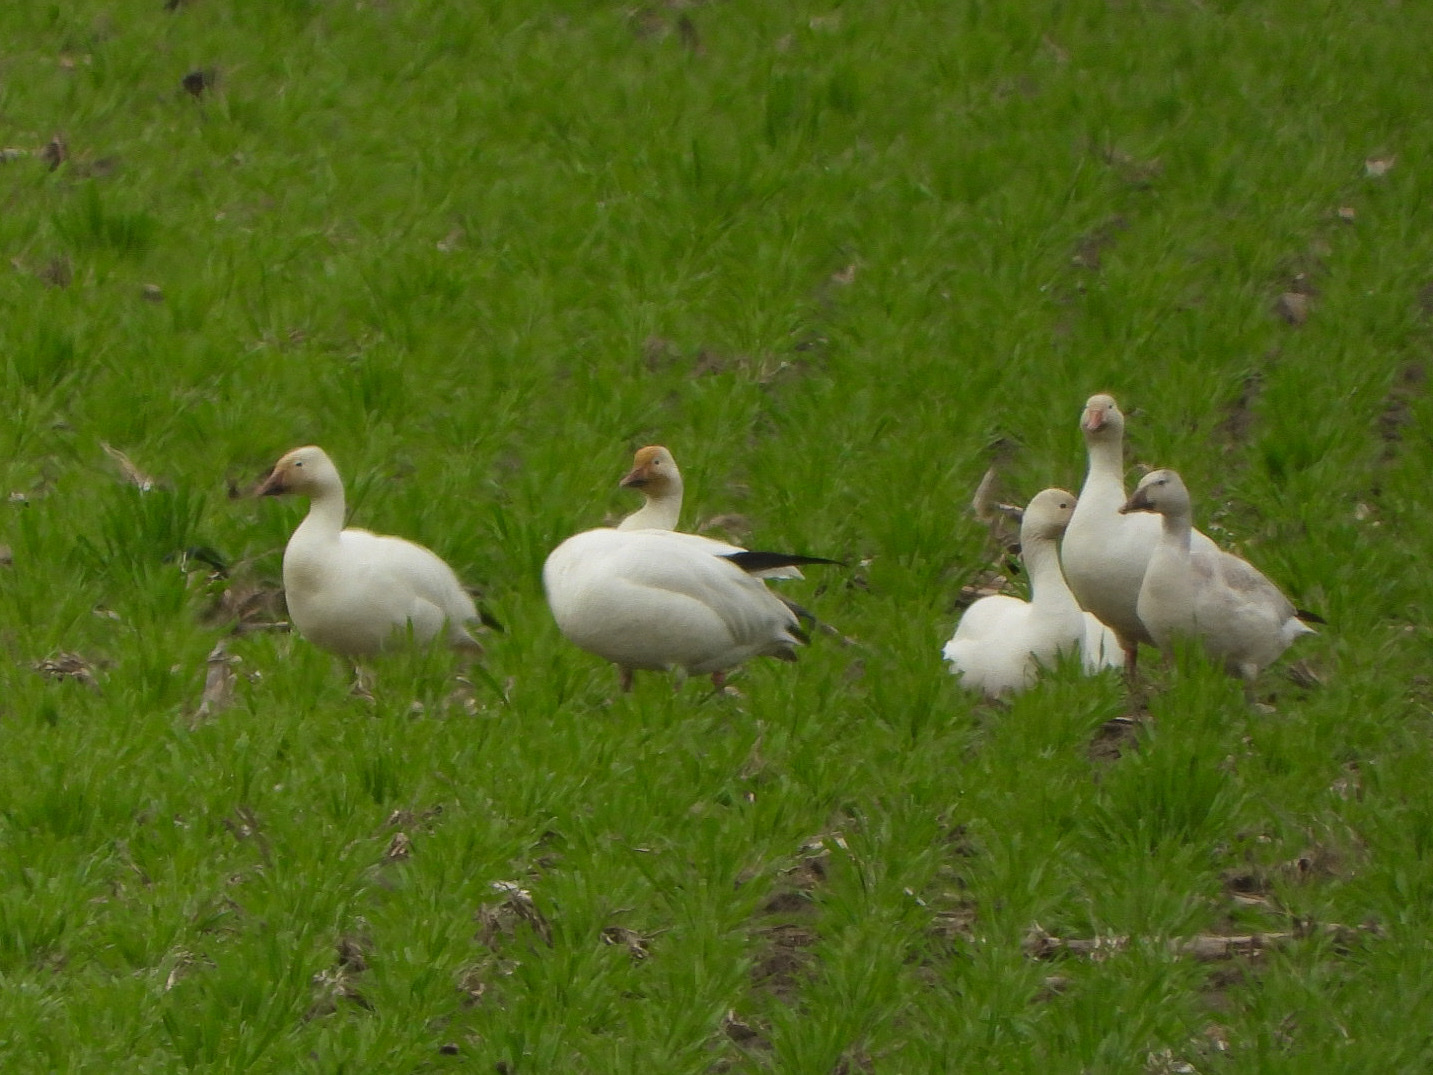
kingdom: Animalia
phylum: Chordata
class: Aves
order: Anseriformes
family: Anatidae
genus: Anser
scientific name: Anser caerulescens
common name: Snow goose
